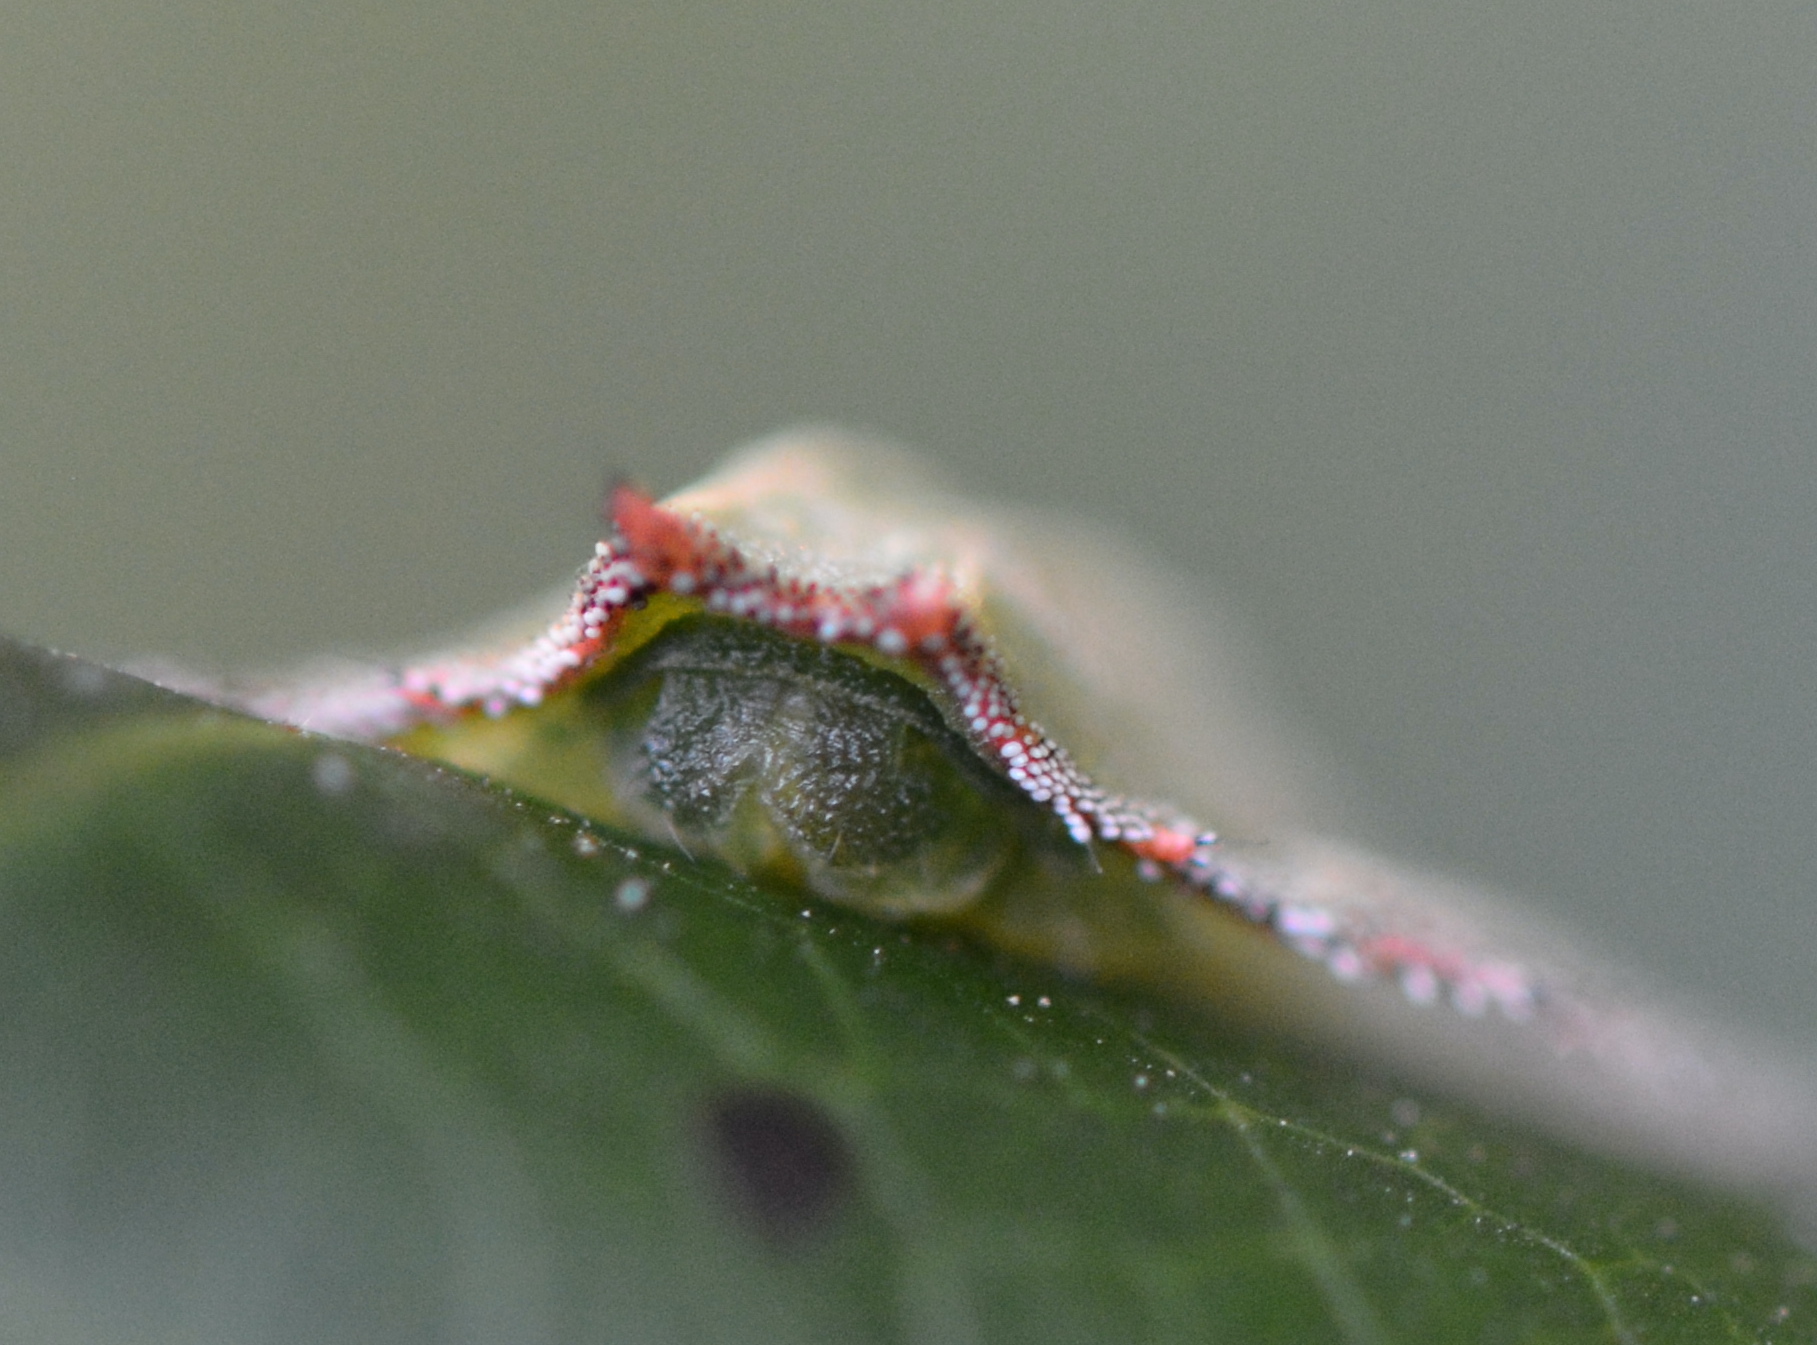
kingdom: Animalia
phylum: Arthropoda
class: Insecta
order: Lepidoptera
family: Limacodidae
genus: Isa
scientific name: Isa textula
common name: Crowned slug moth
